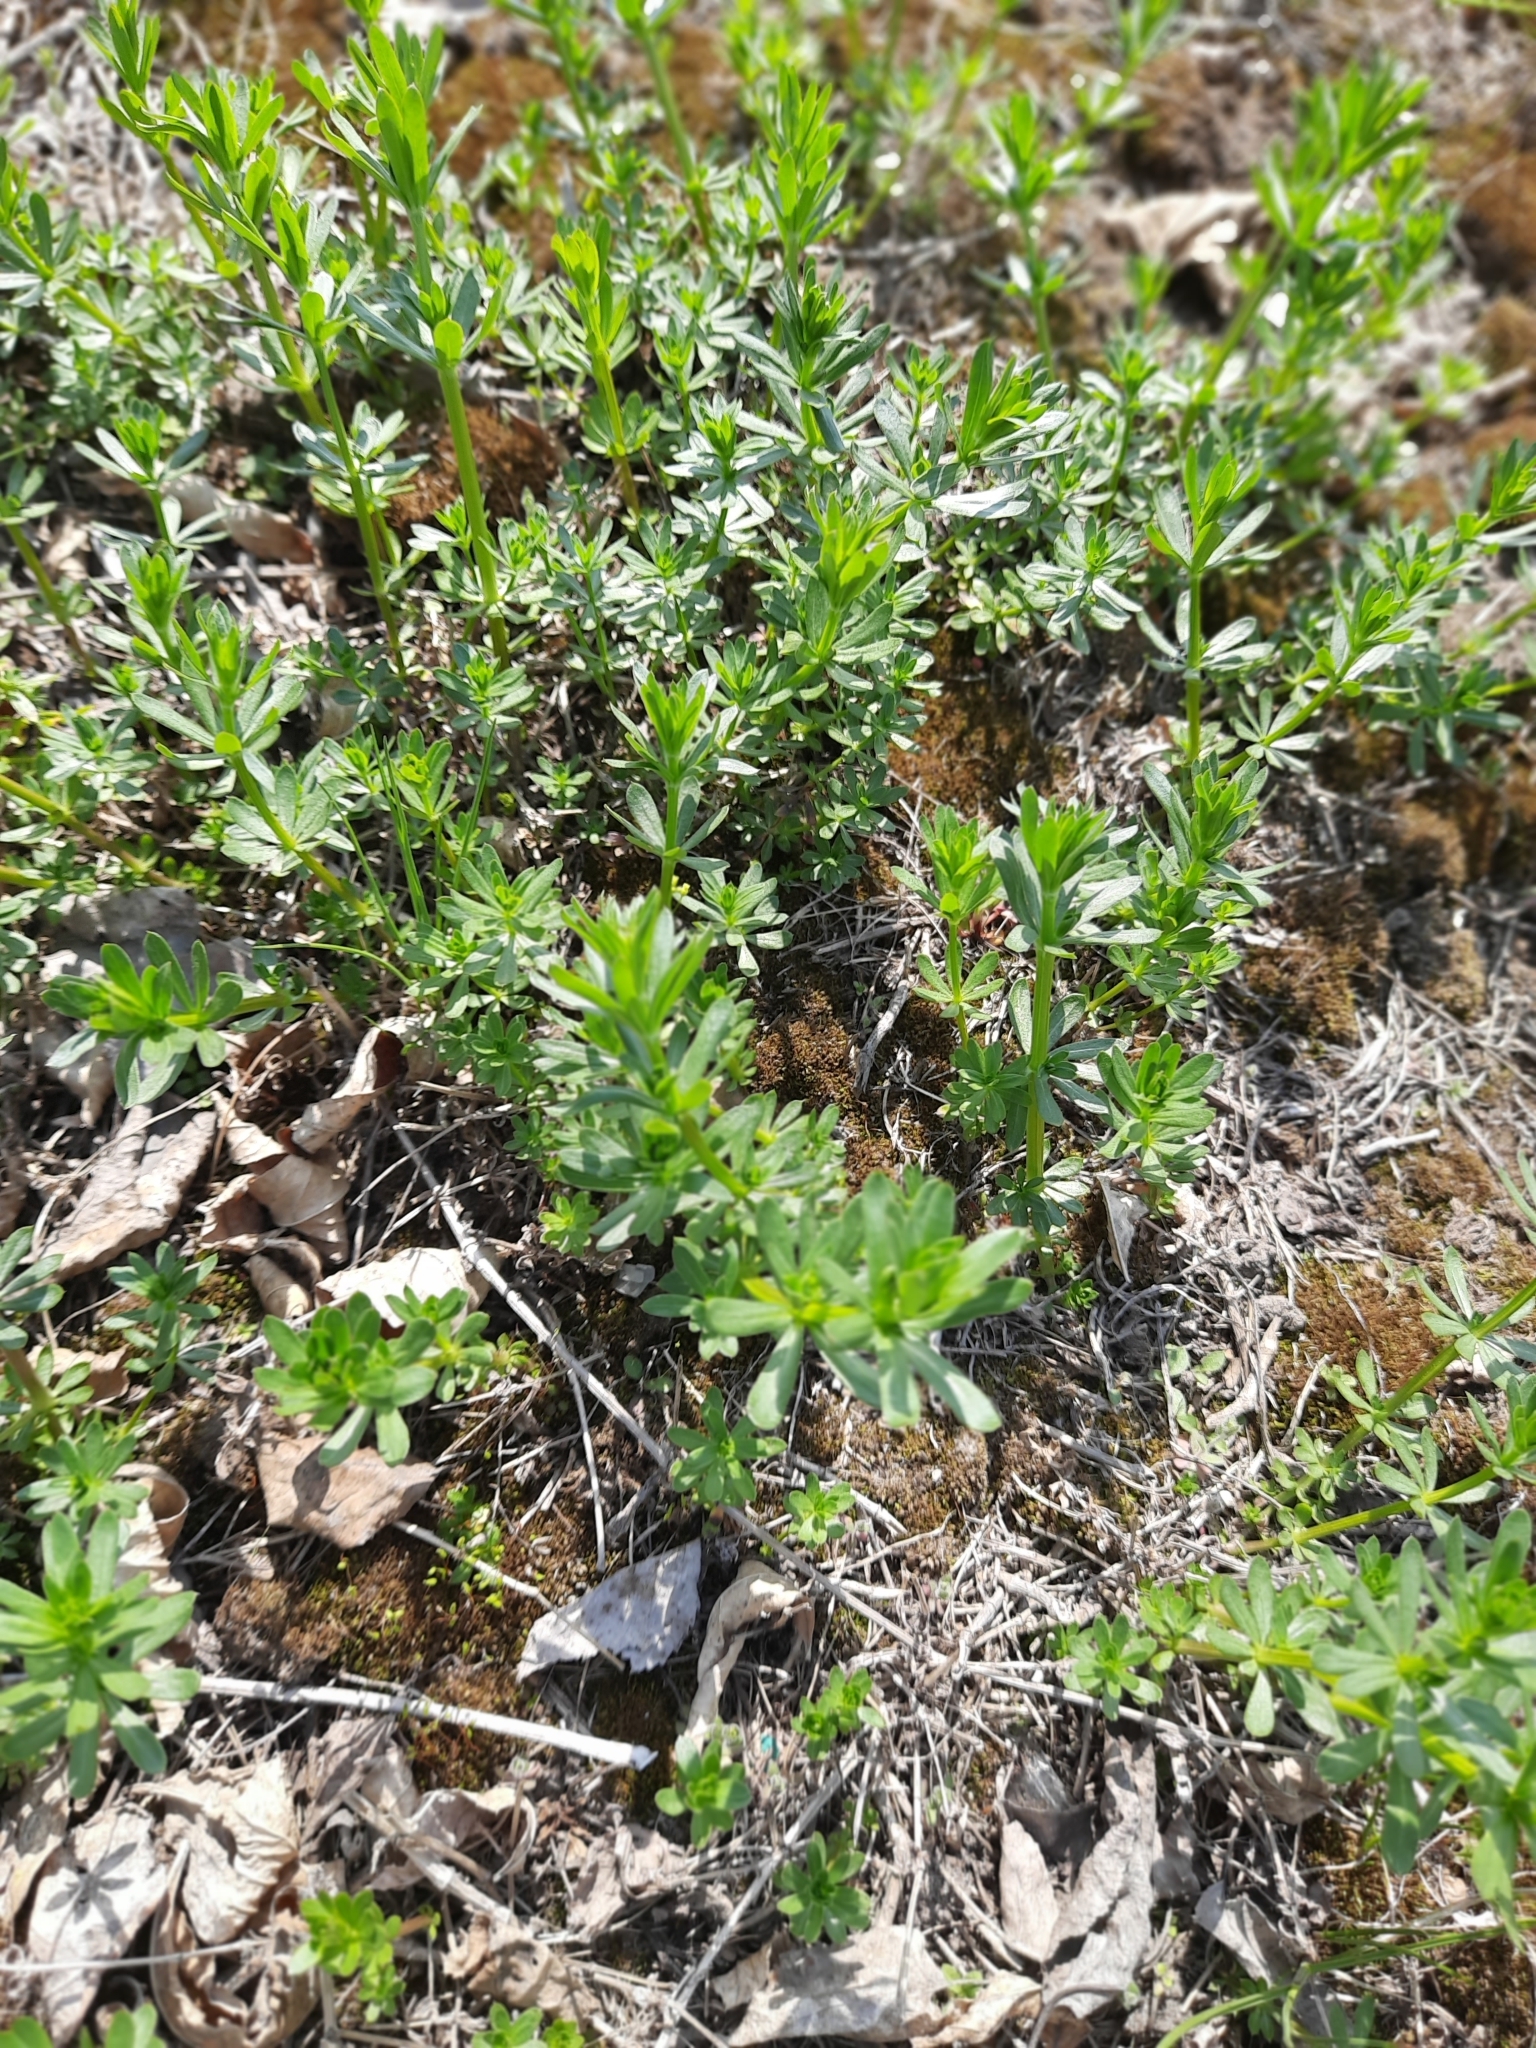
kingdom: Plantae
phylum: Tracheophyta
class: Magnoliopsida
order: Gentianales
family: Rubiaceae
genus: Galium
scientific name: Galium mollugo
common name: Hedge bedstraw
